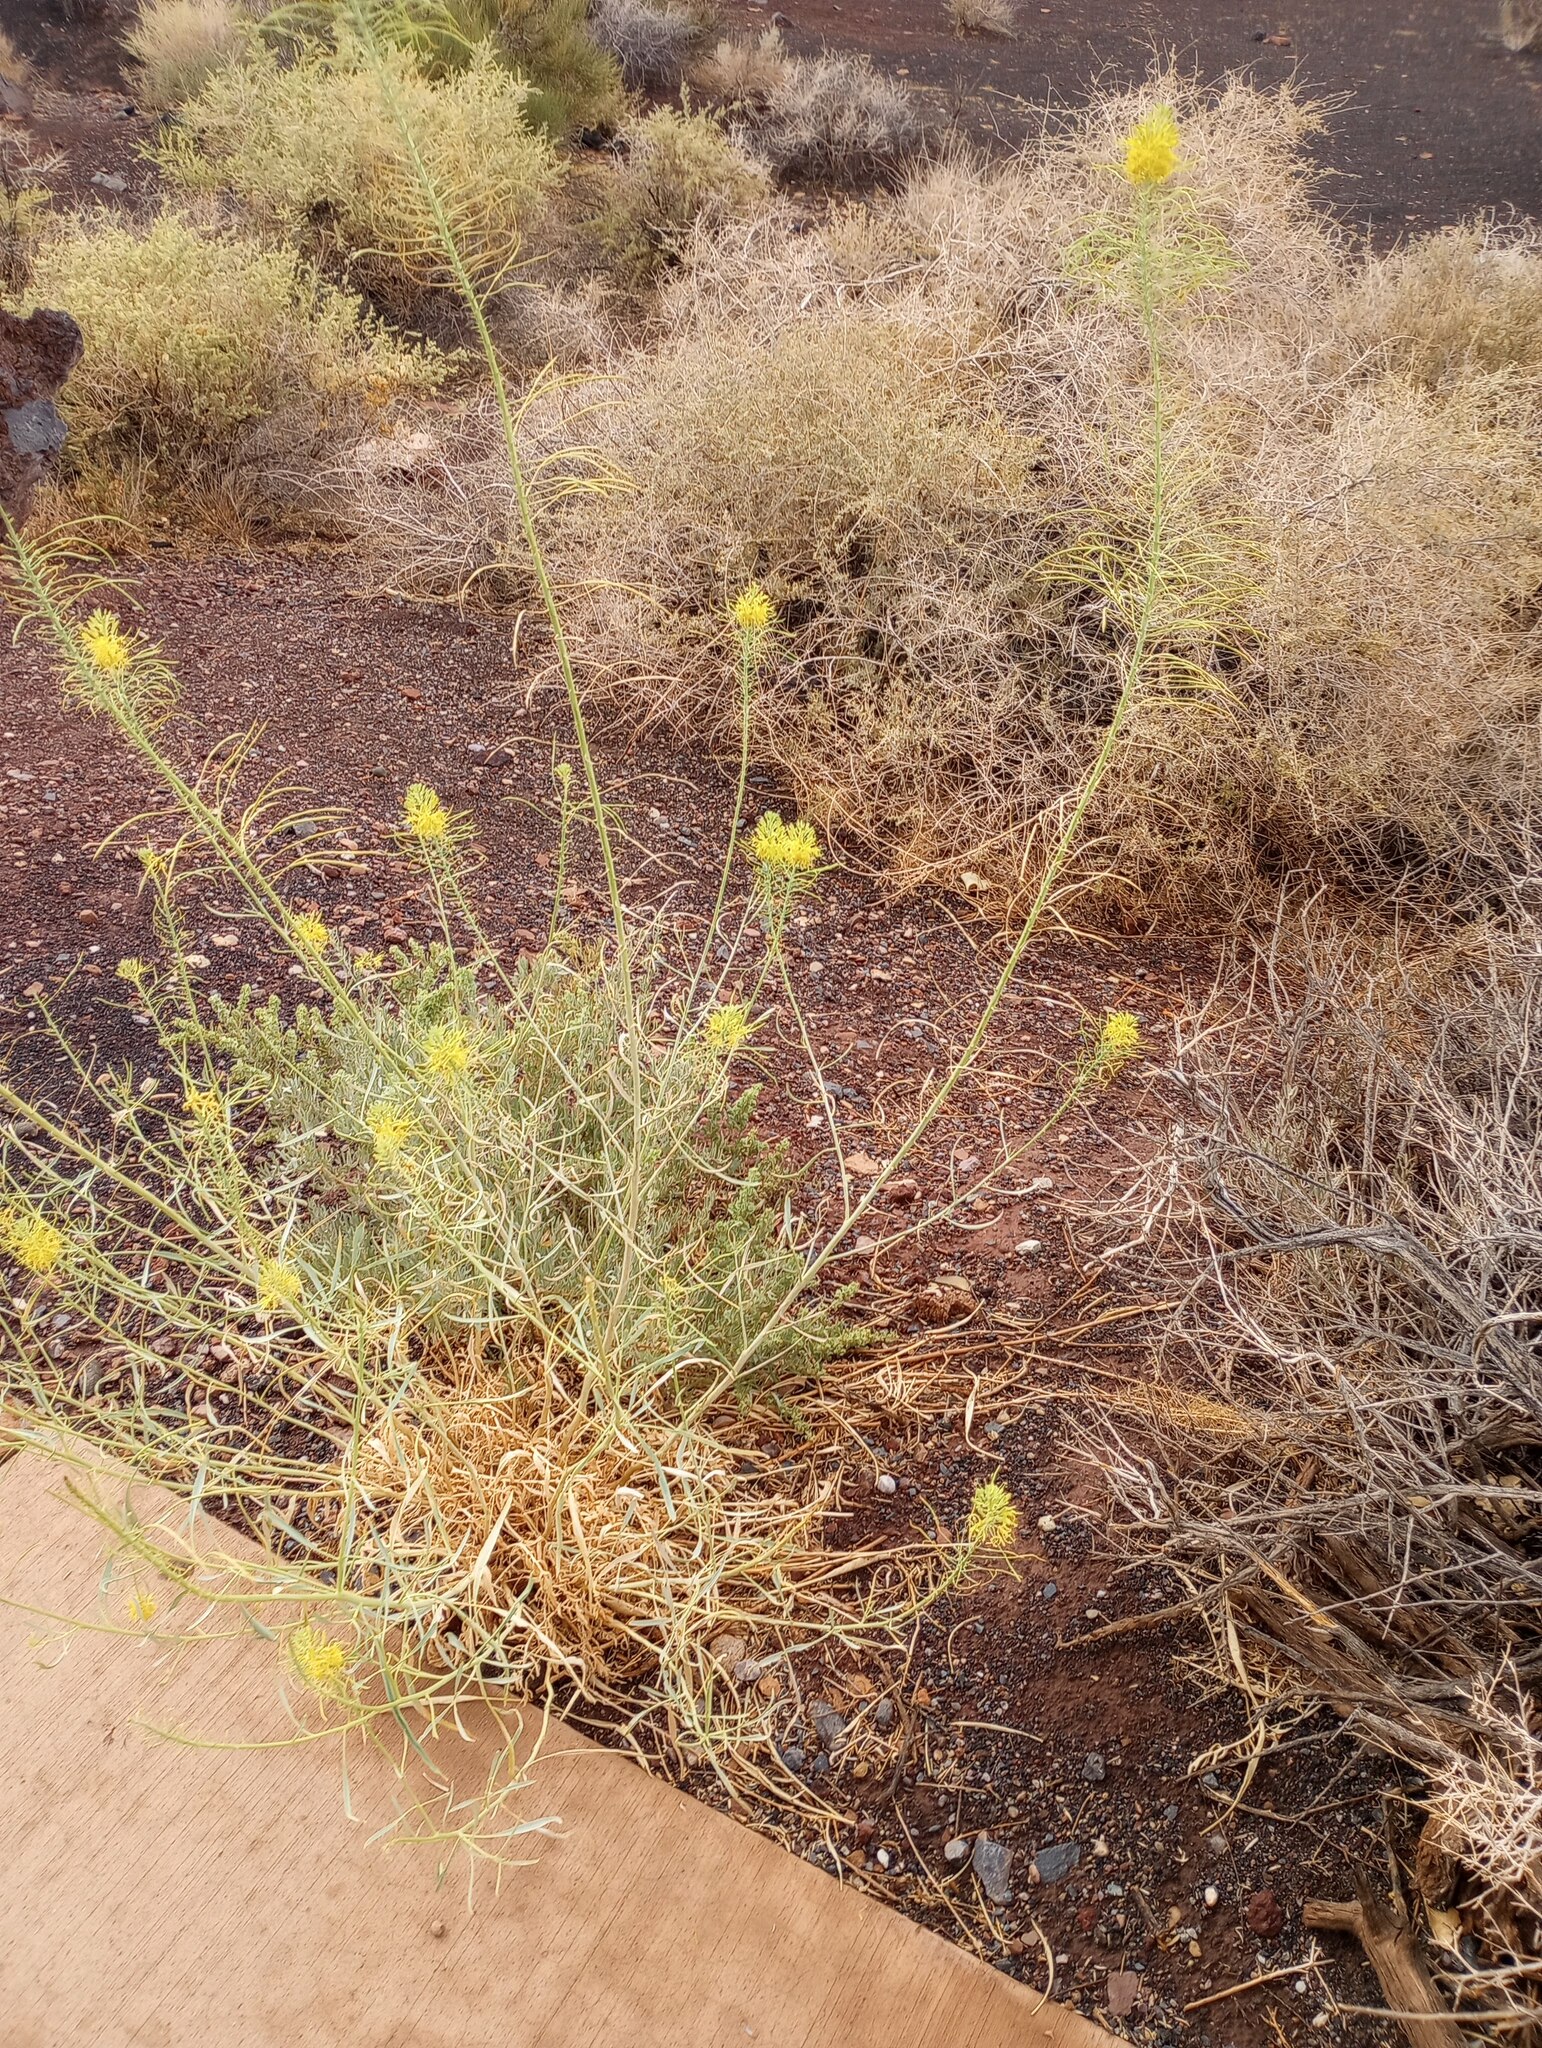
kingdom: Plantae
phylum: Tracheophyta
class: Magnoliopsida
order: Brassicales
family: Brassicaceae
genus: Stanleya
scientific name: Stanleya pinnata
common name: Prince's-plume
